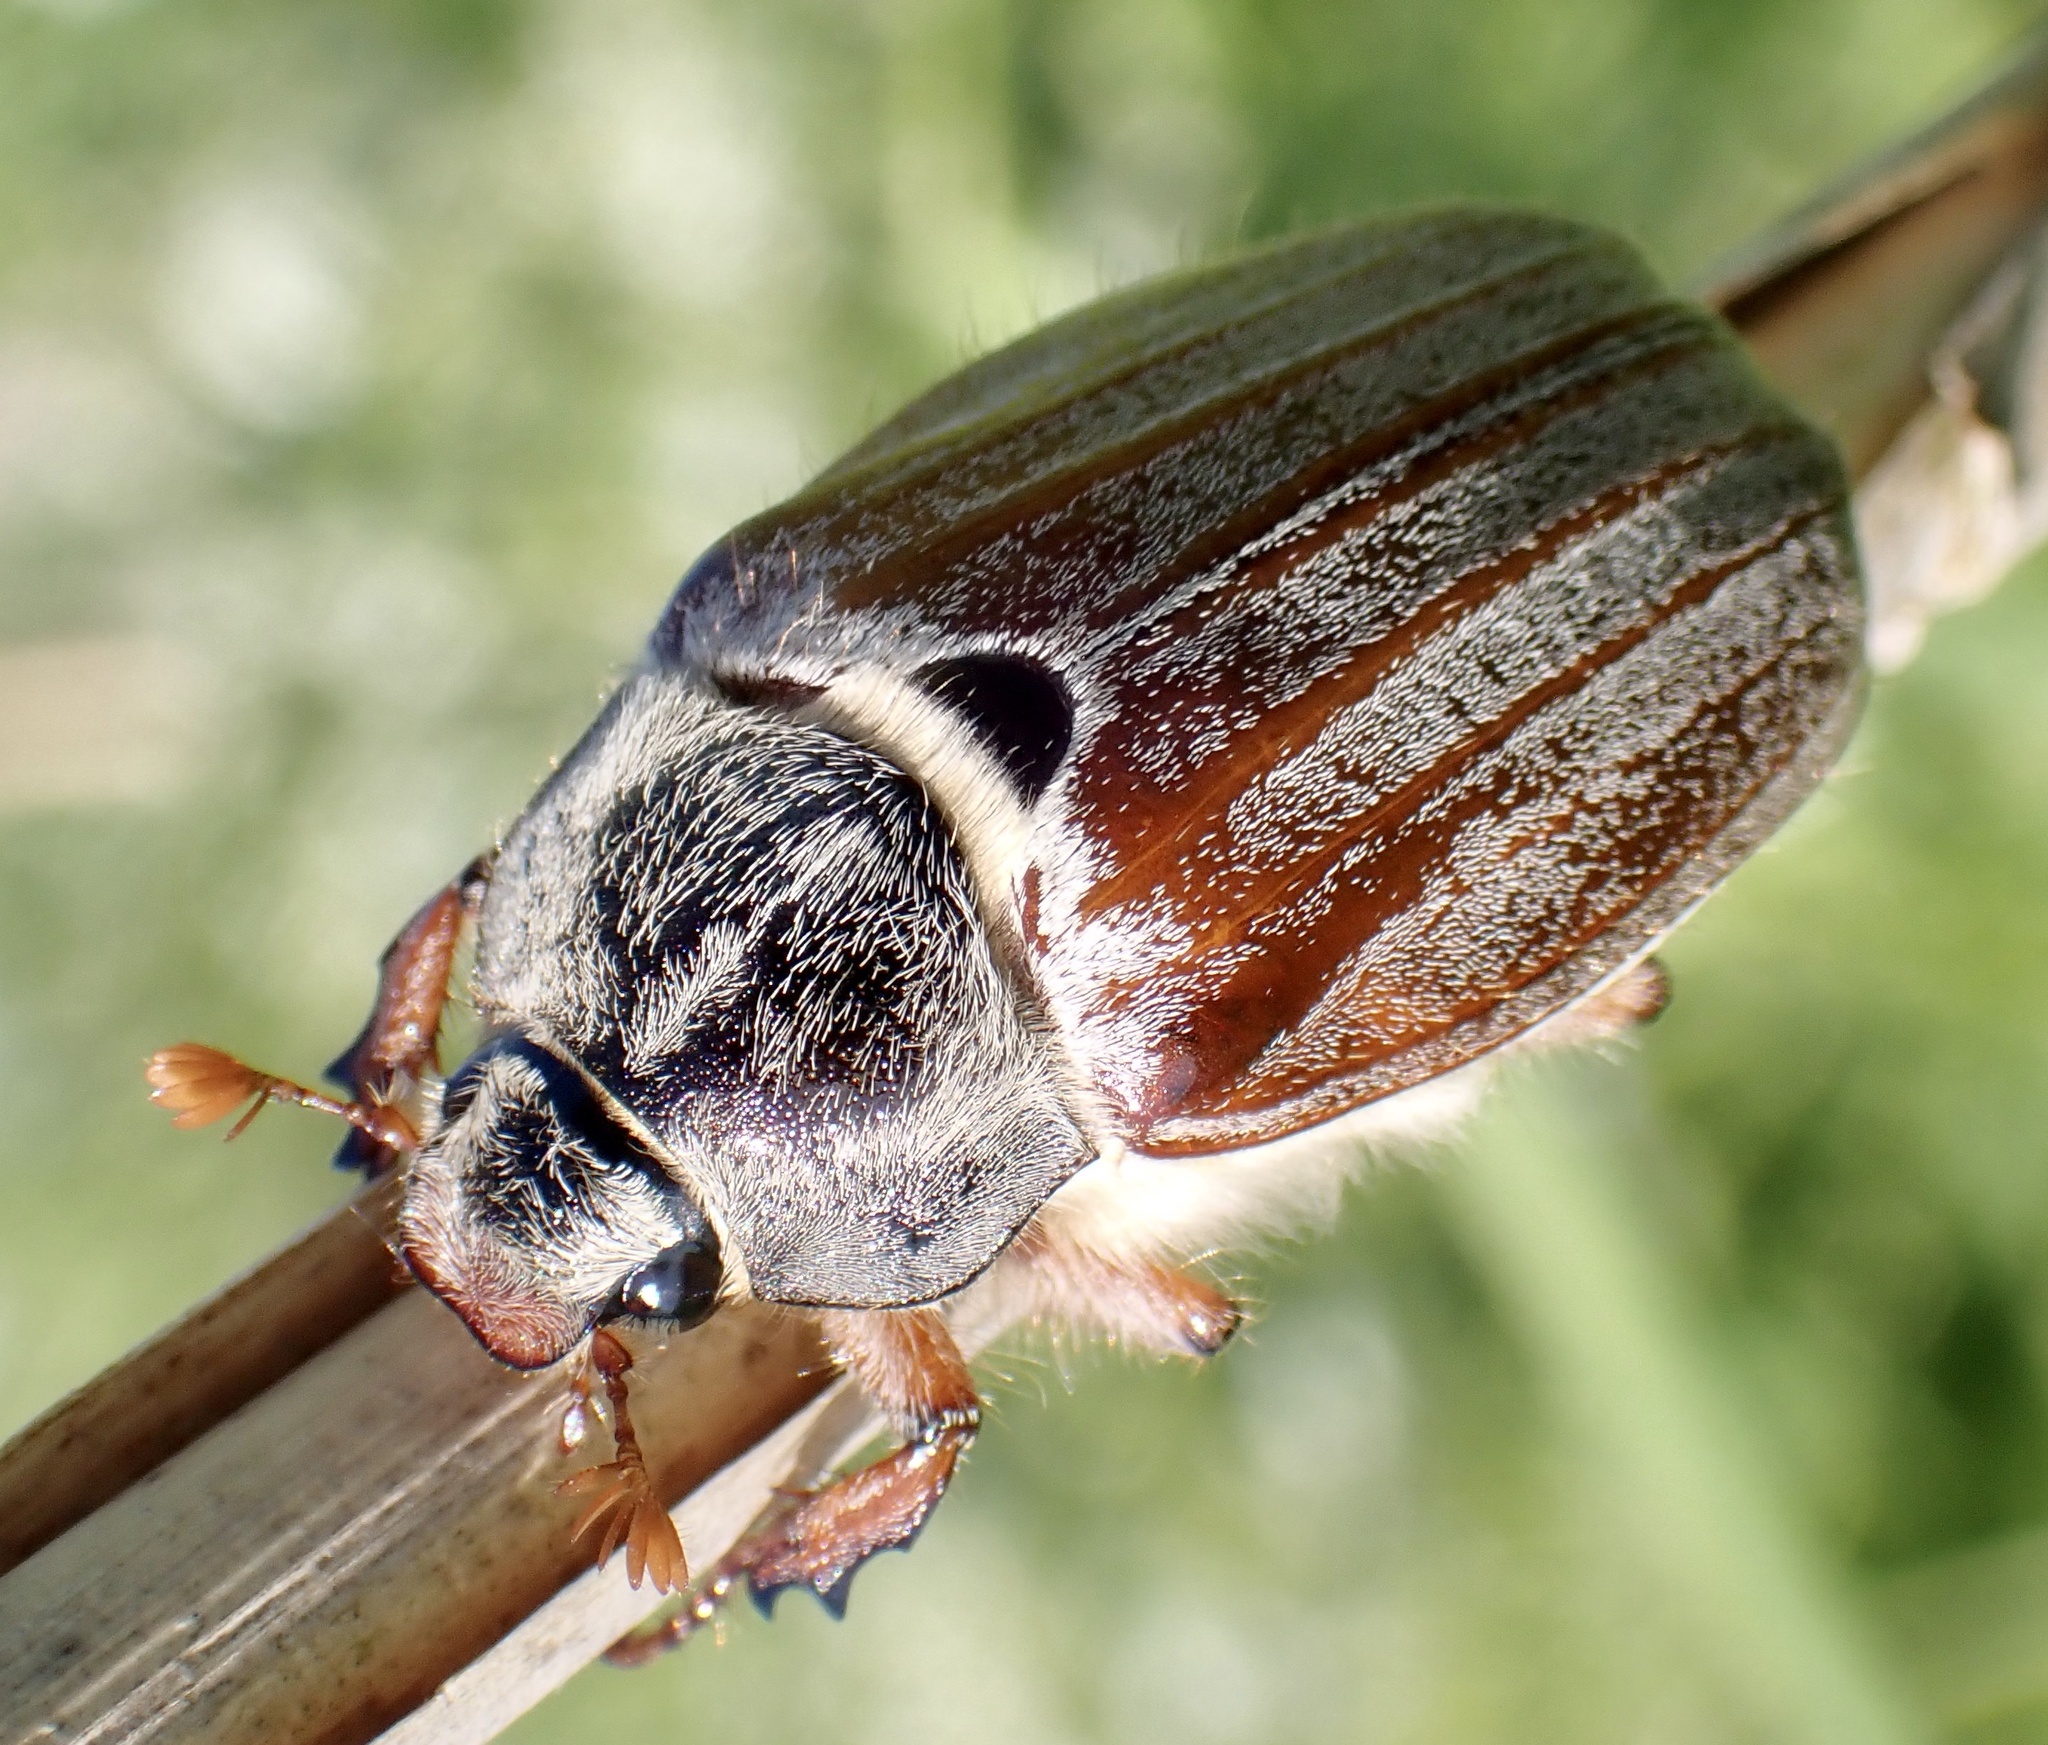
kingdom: Animalia
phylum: Arthropoda
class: Insecta
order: Coleoptera
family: Scarabaeidae
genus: Melolontha
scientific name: Melolontha melolontha
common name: Cockchafer maybeetle
